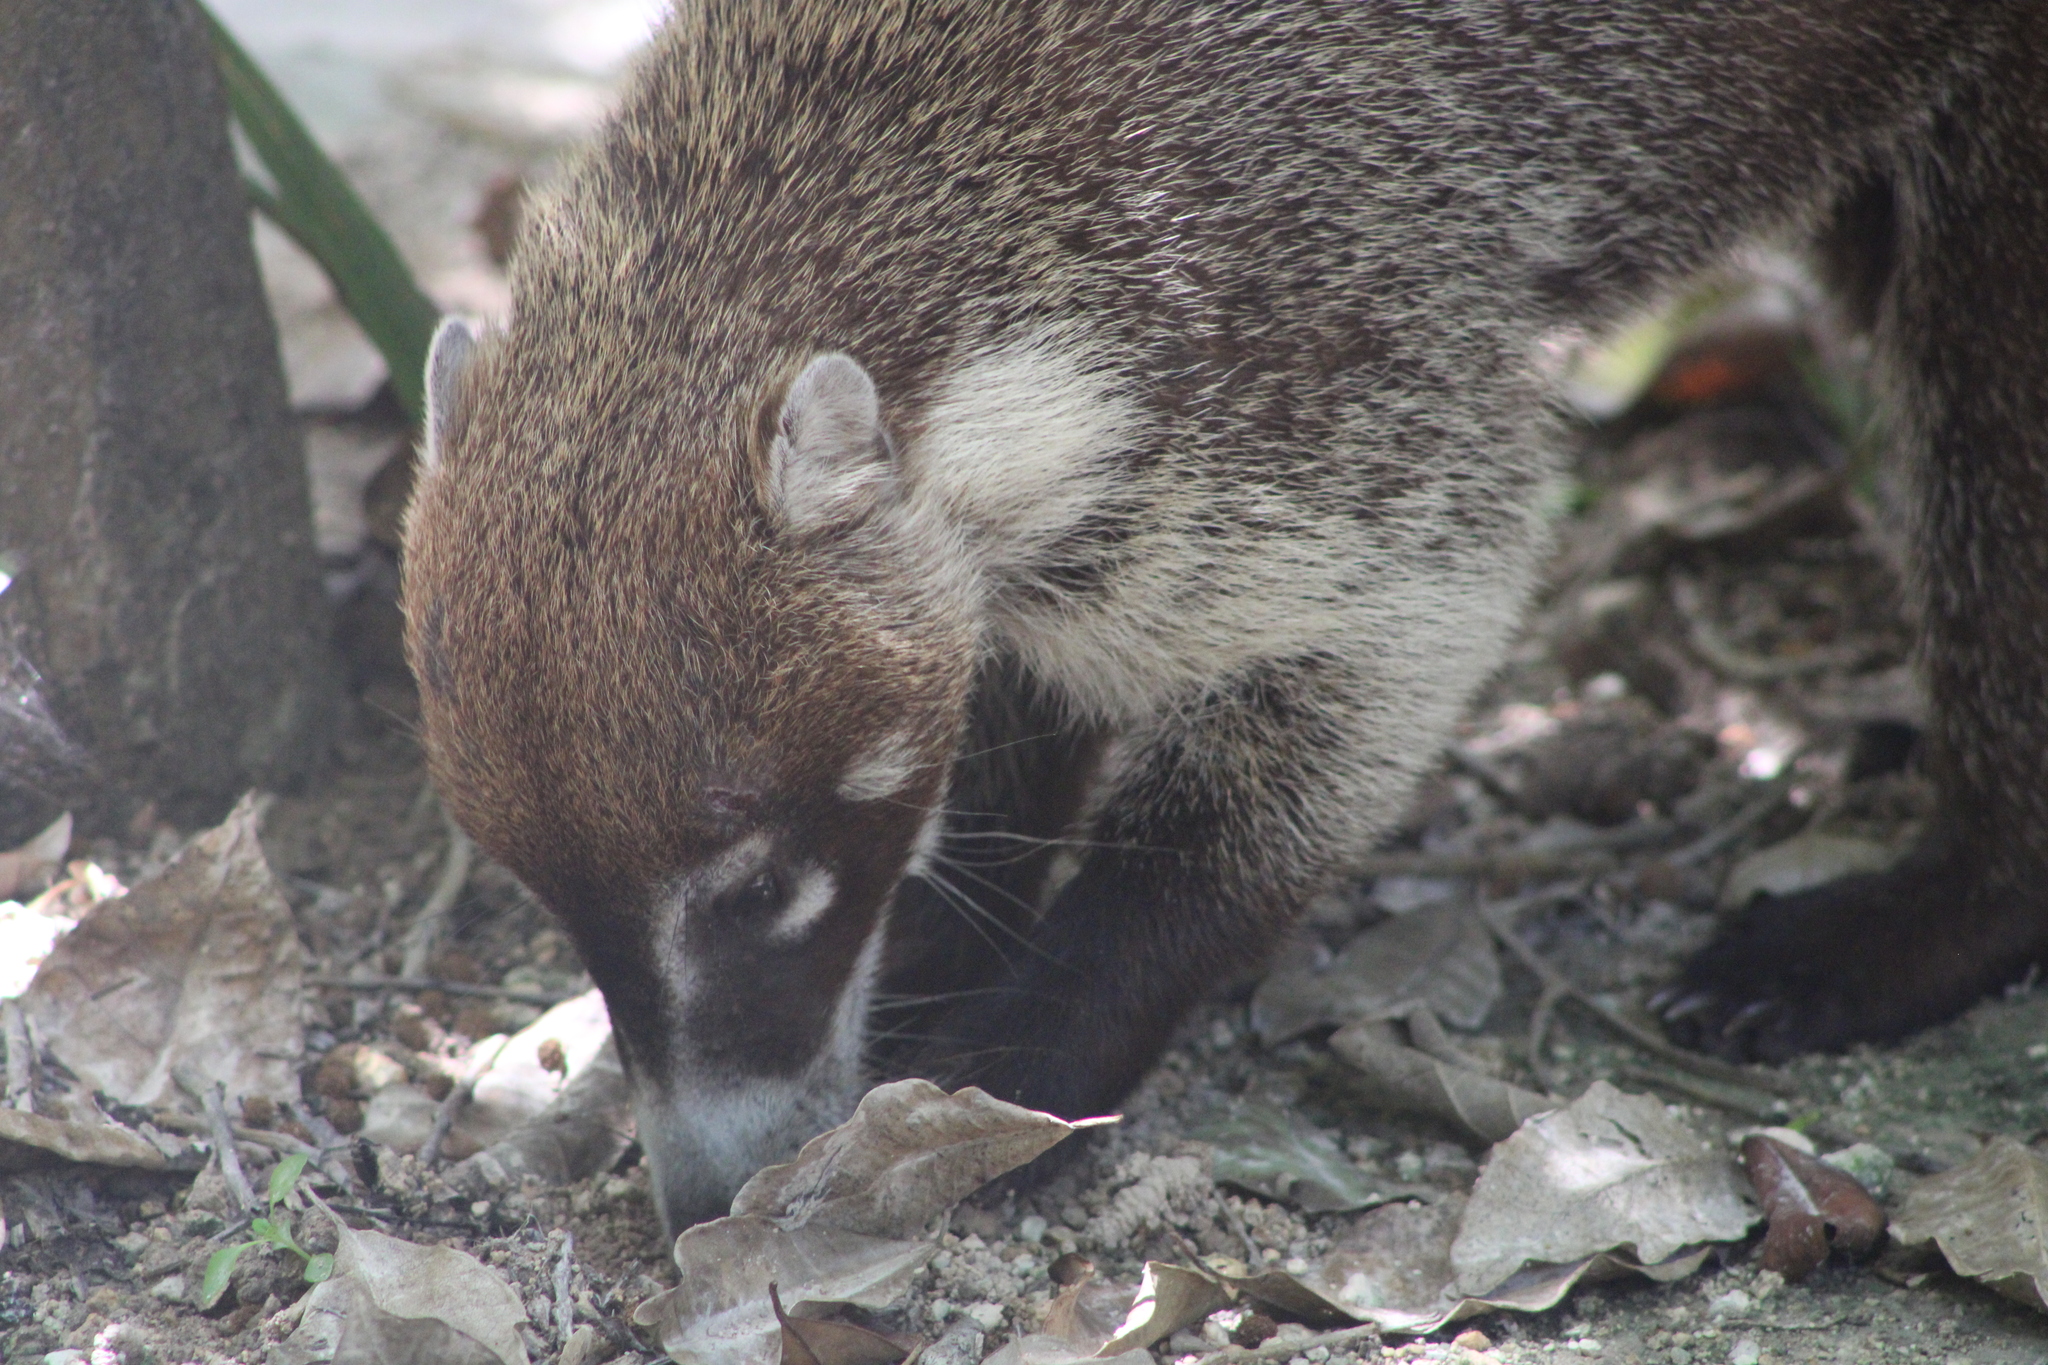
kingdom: Animalia
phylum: Chordata
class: Mammalia
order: Carnivora
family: Procyonidae
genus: Nasua
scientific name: Nasua narica
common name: White-nosed coati
